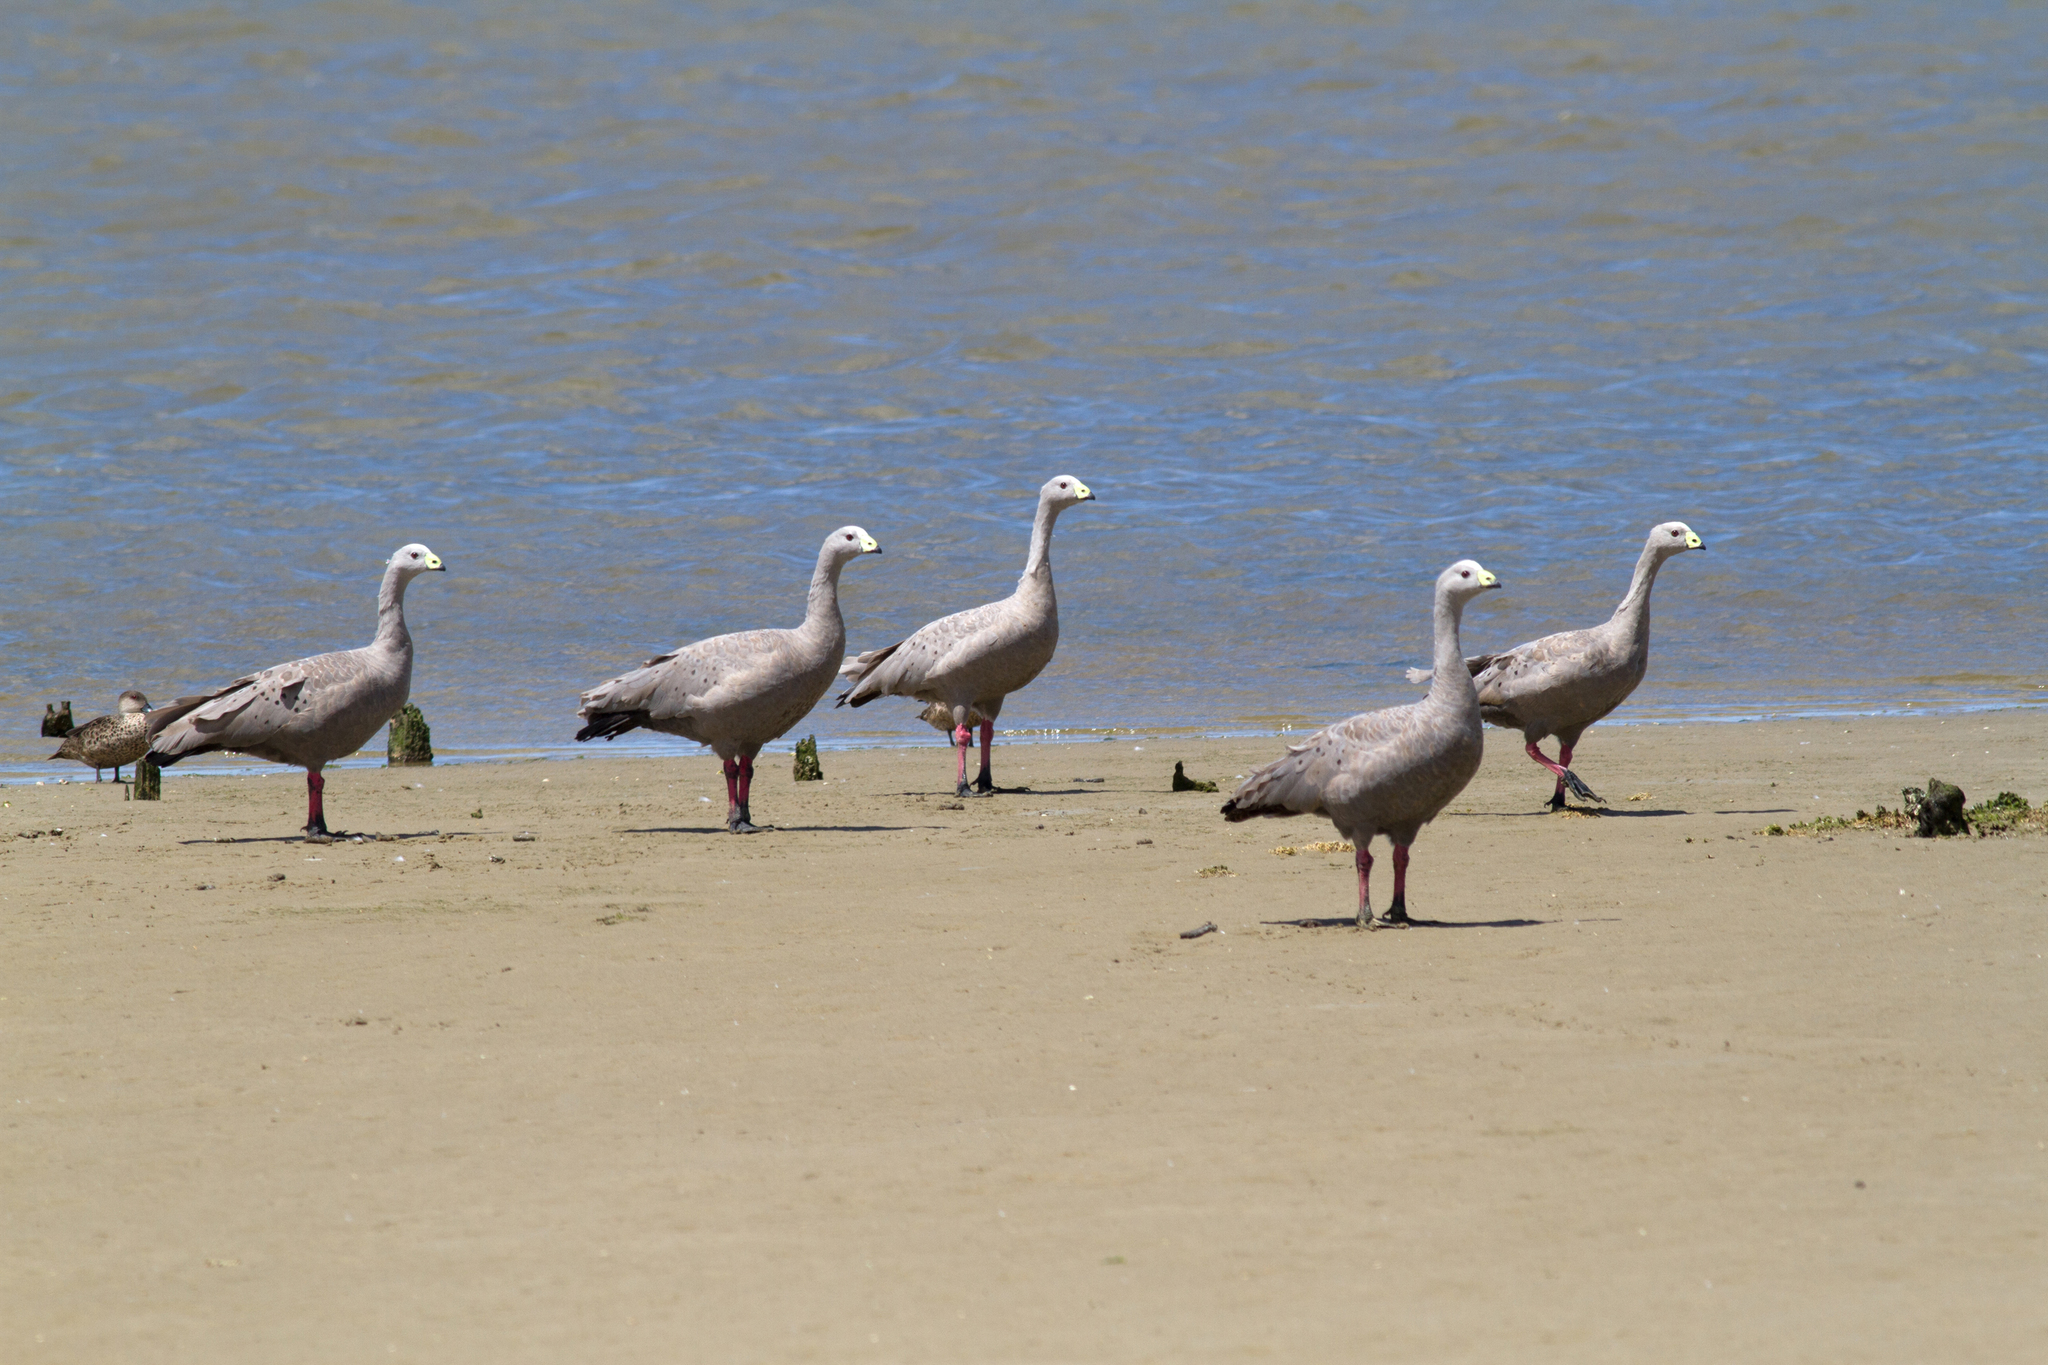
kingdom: Animalia
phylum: Chordata
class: Aves
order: Anseriformes
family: Anatidae
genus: Cereopsis
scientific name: Cereopsis novaehollandiae
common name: Cape barren goose
